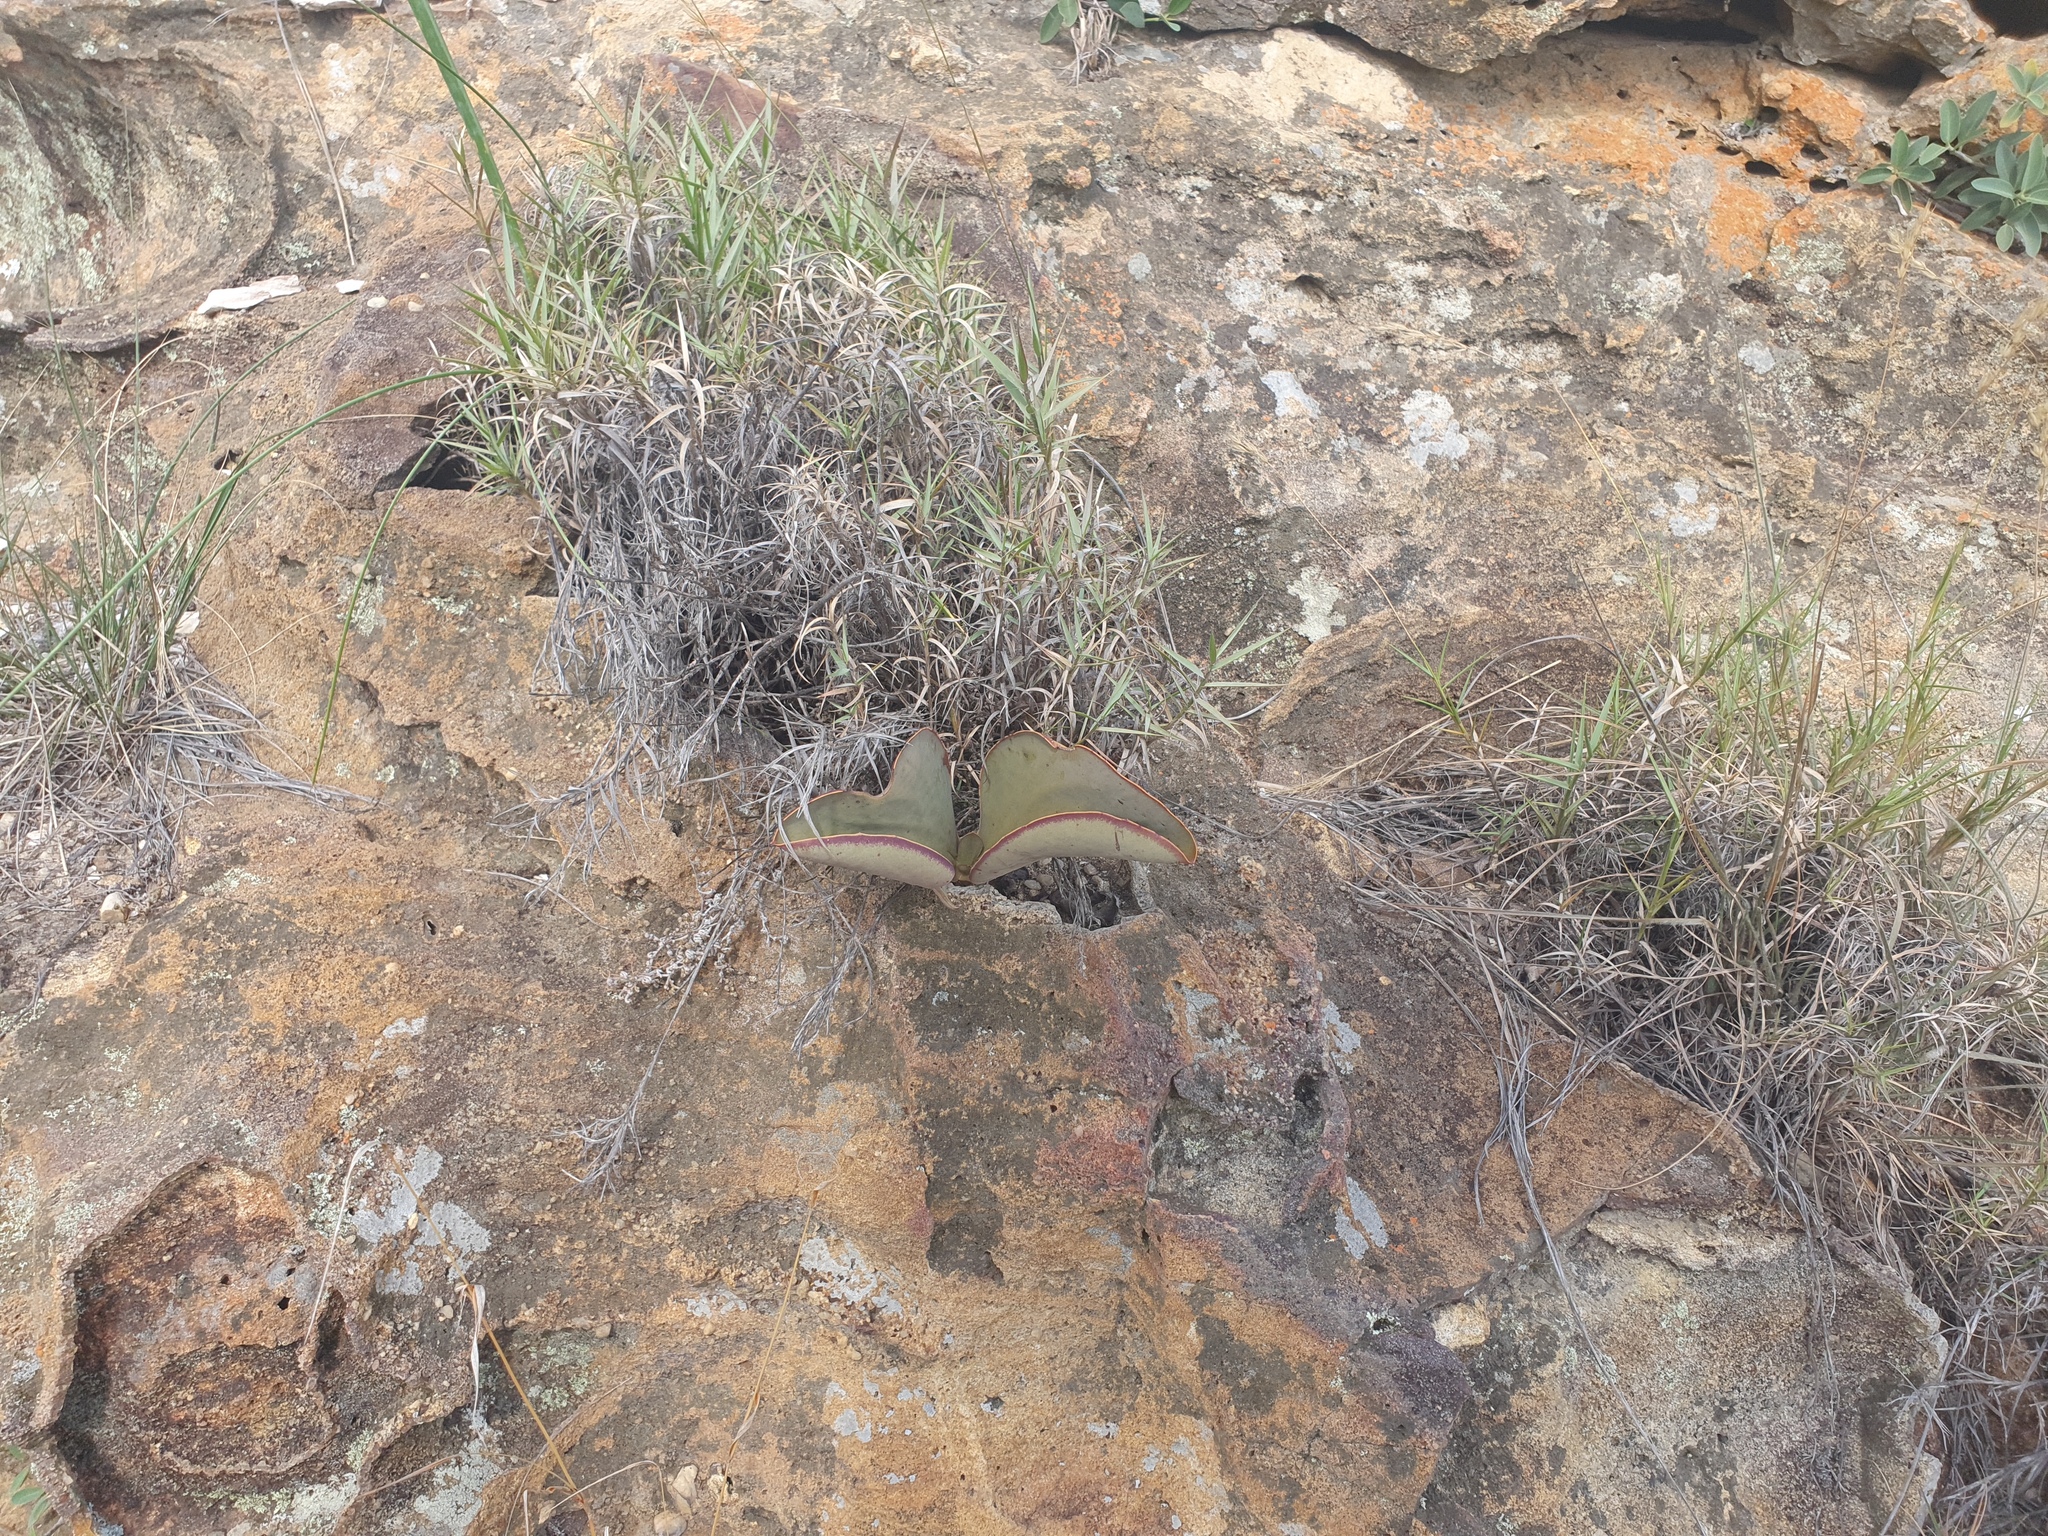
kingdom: Plantae
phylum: Tracheophyta
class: Magnoliopsida
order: Saxifragales
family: Crassulaceae
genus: Kalanchoe
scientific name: Kalanchoe synsepala
